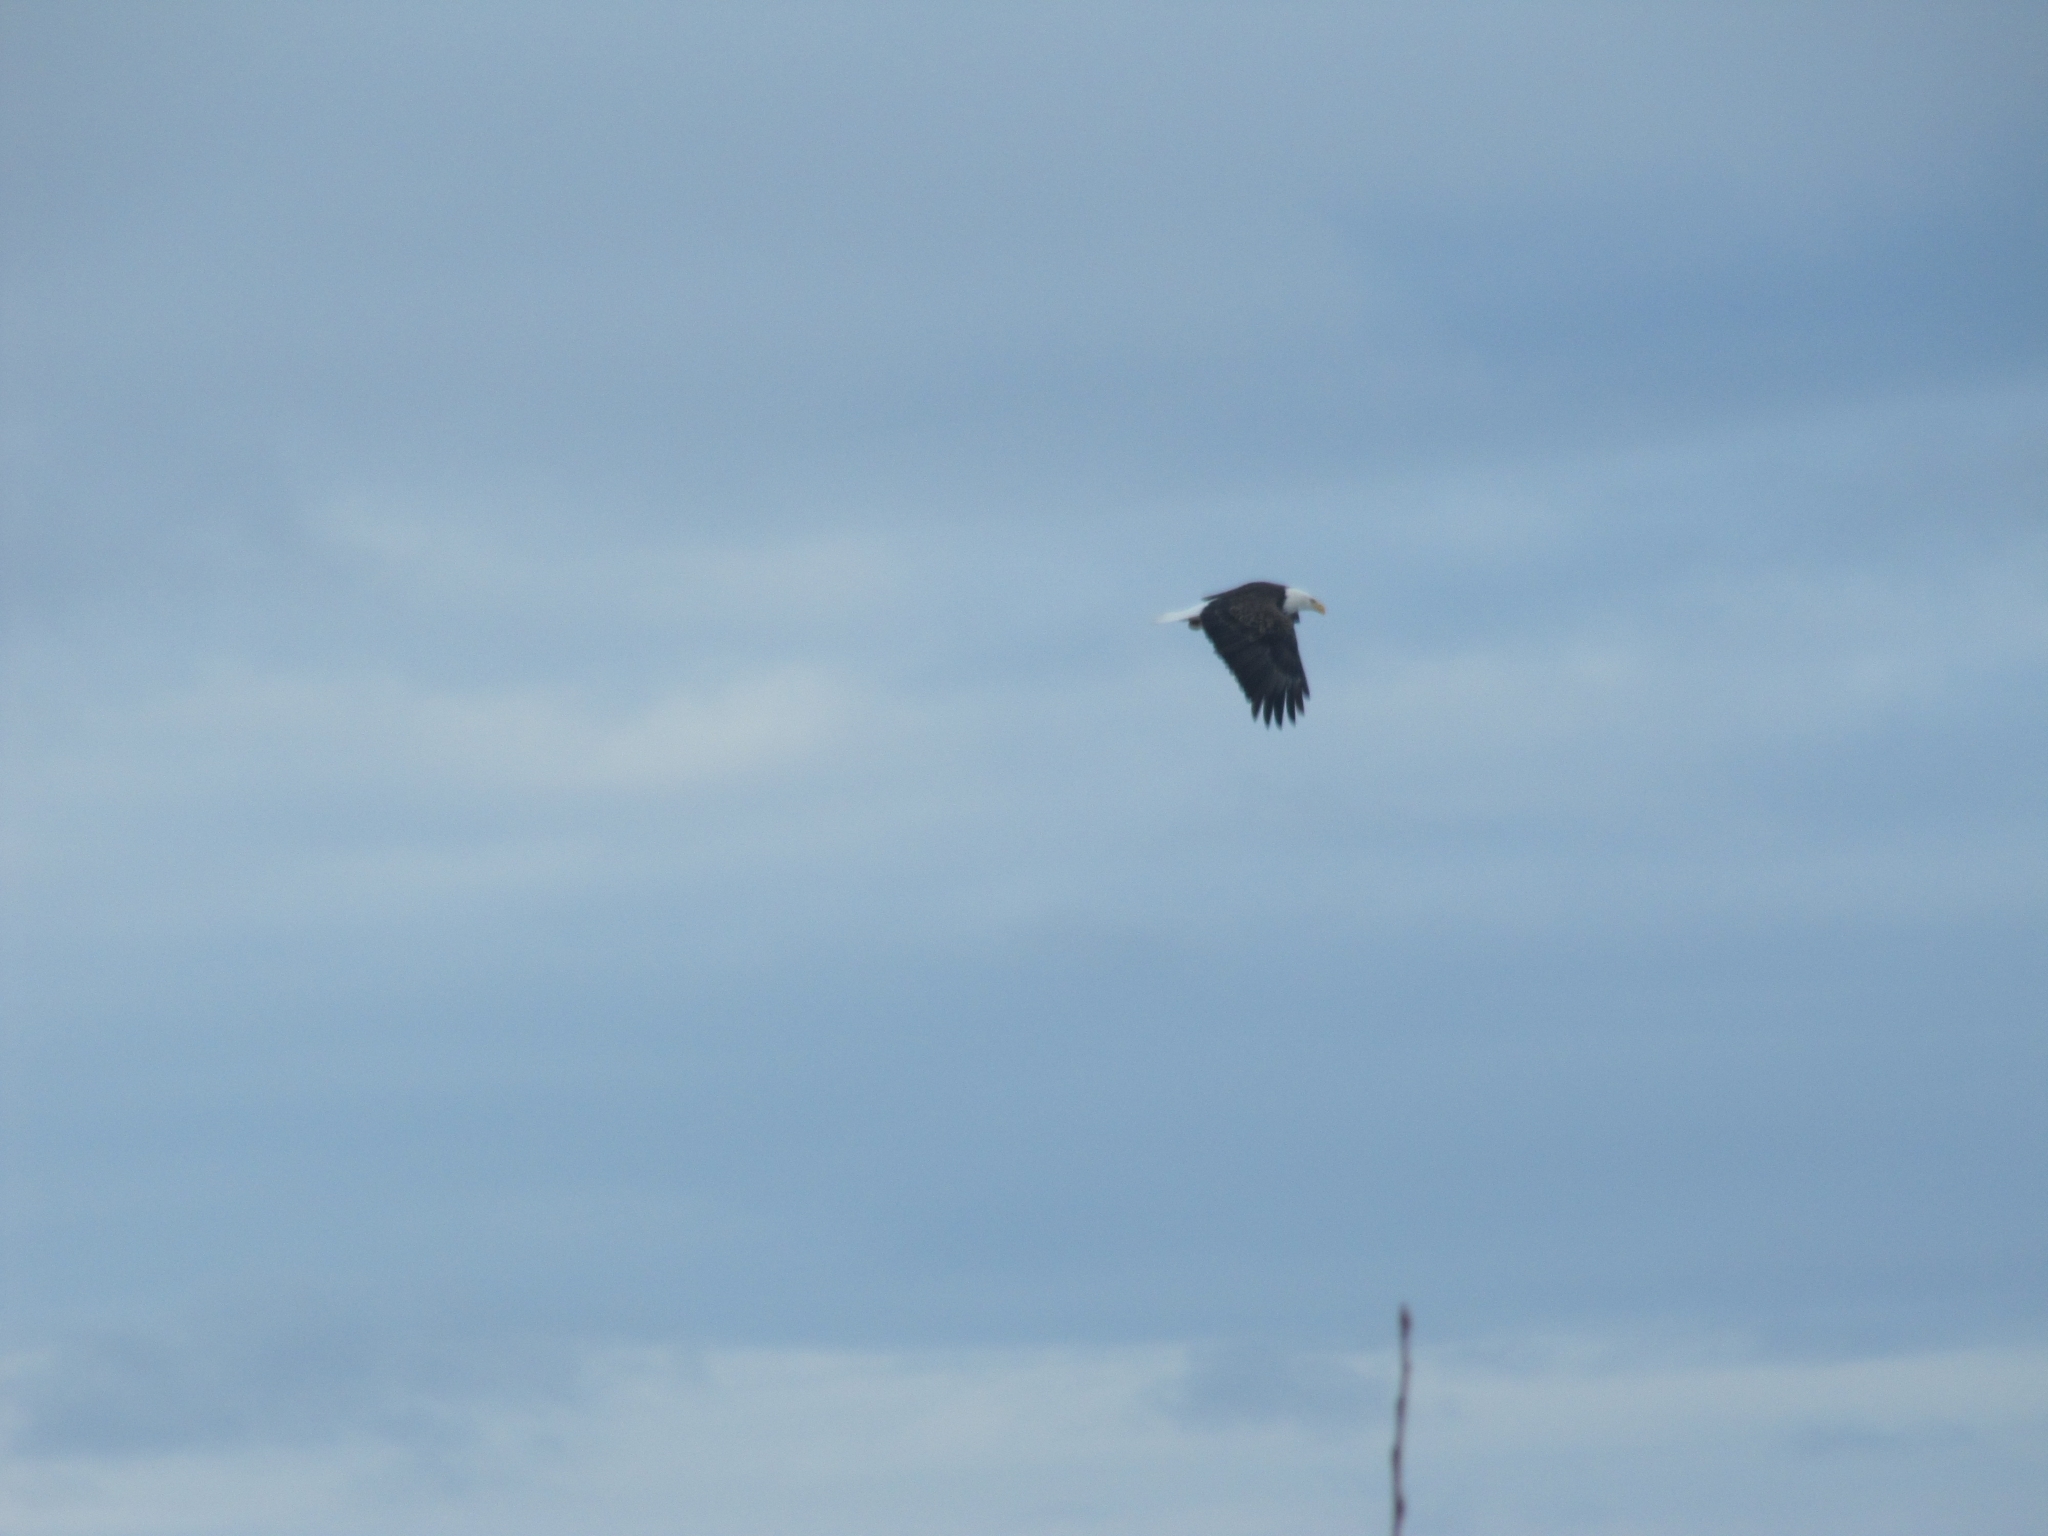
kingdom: Animalia
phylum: Chordata
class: Aves
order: Accipitriformes
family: Accipitridae
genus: Haliaeetus
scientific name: Haliaeetus leucocephalus
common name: Bald eagle
